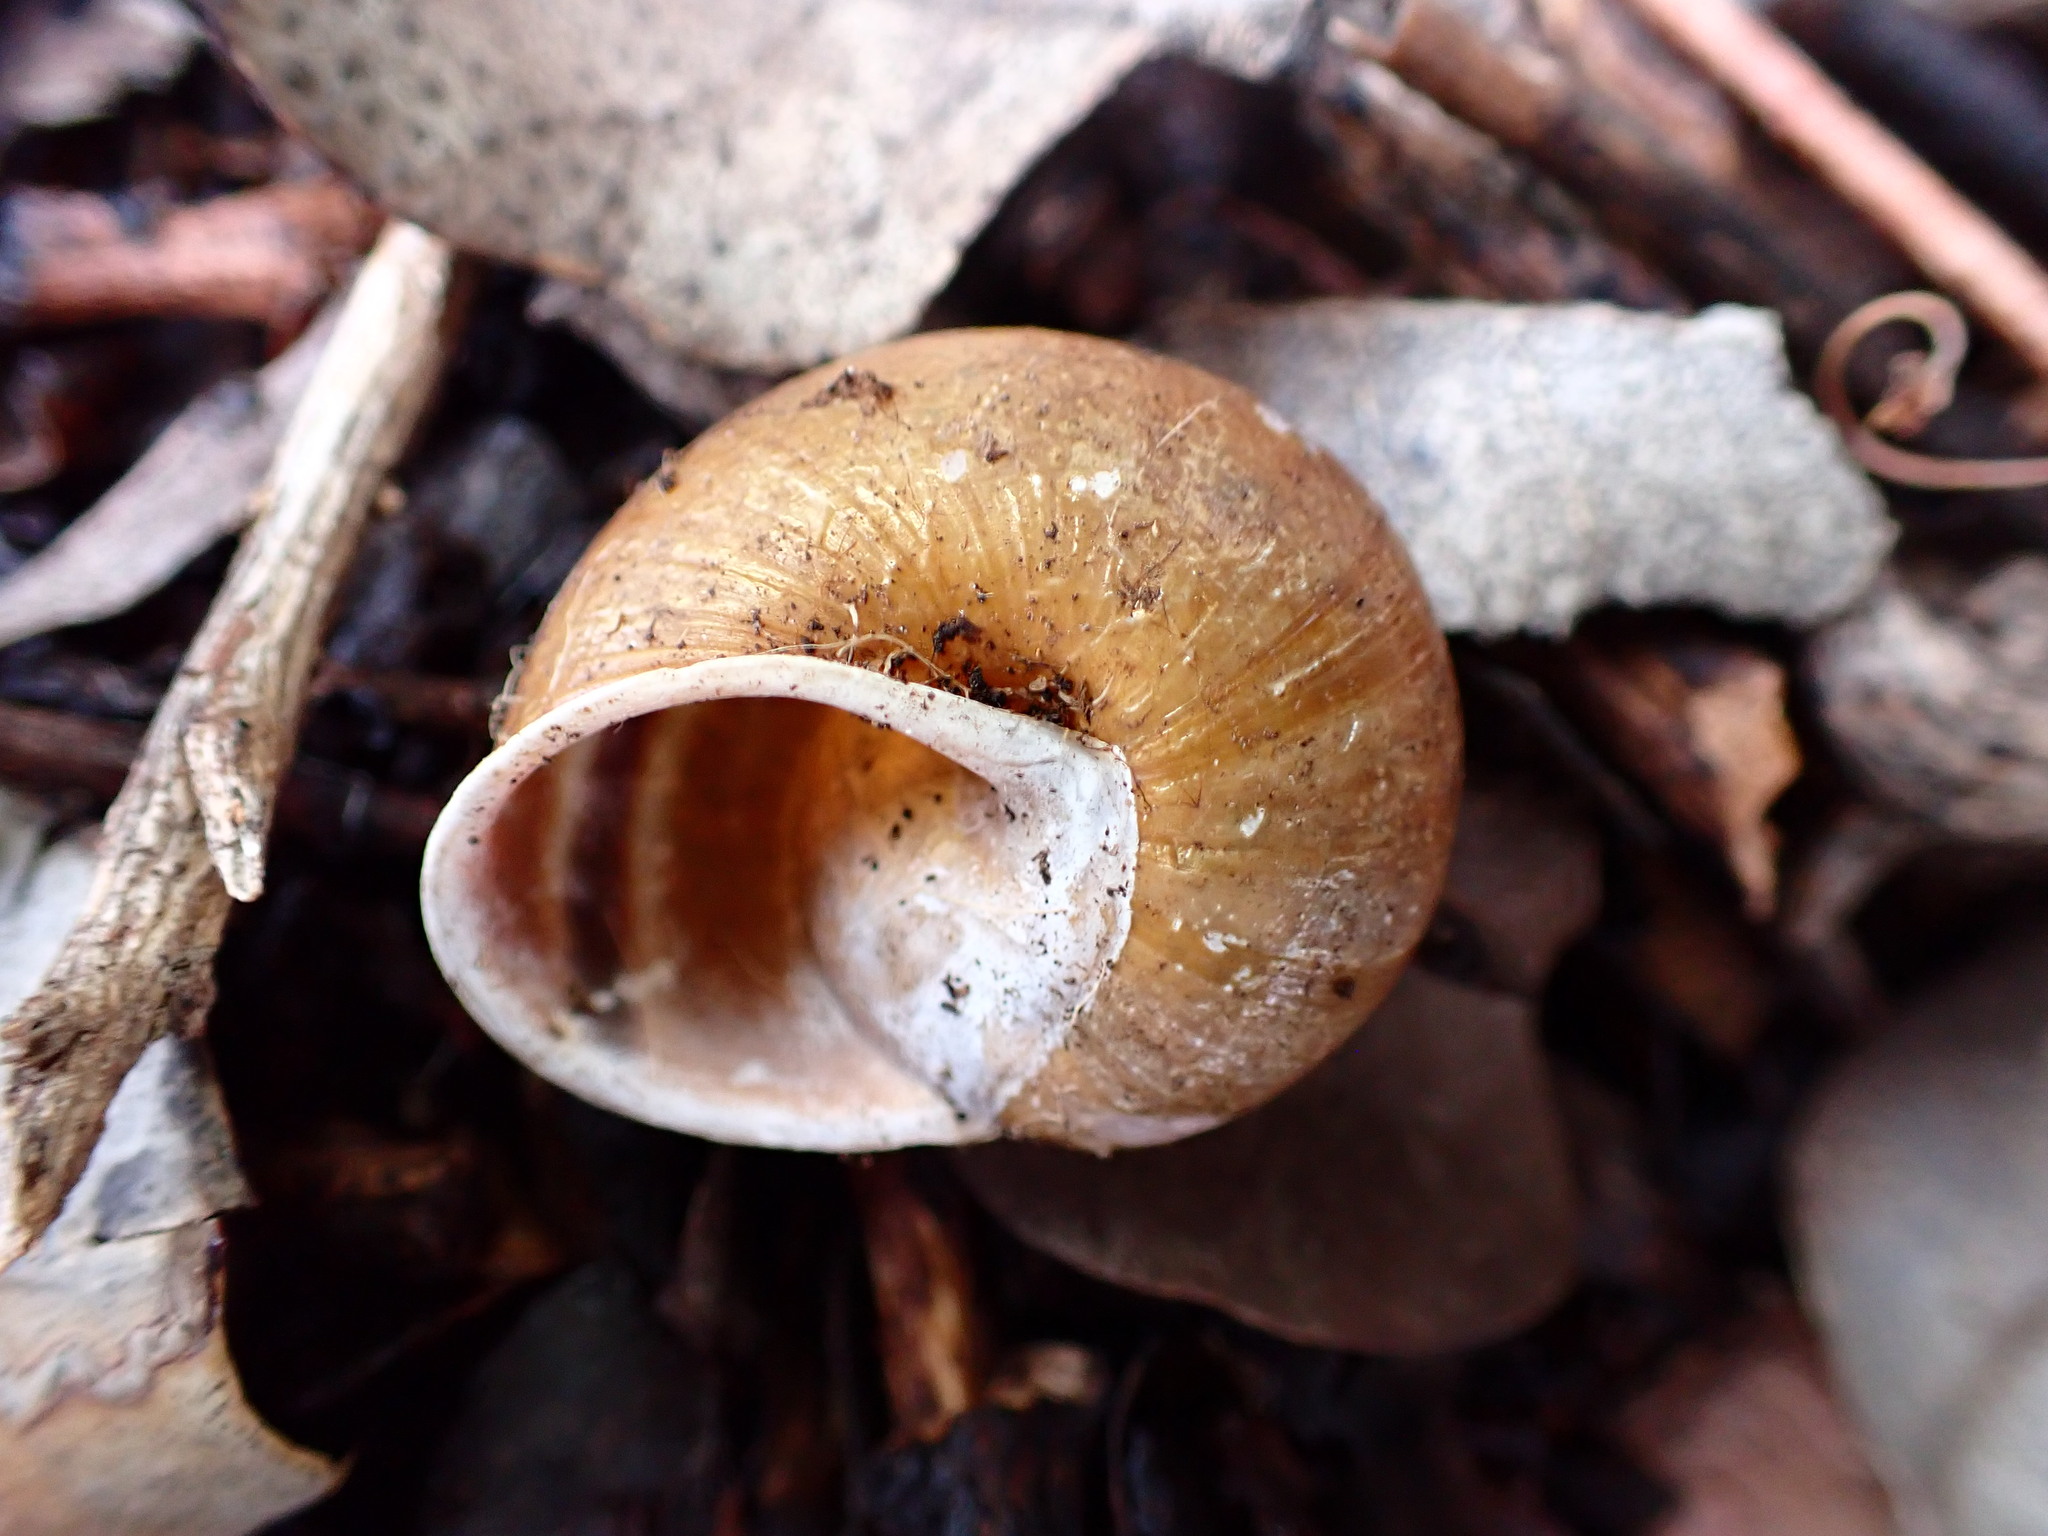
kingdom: Animalia
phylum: Mollusca
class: Gastropoda
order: Stylommatophora
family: Xanthonychidae
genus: Helminthoglypta
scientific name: Helminthoglypta tudiculata
